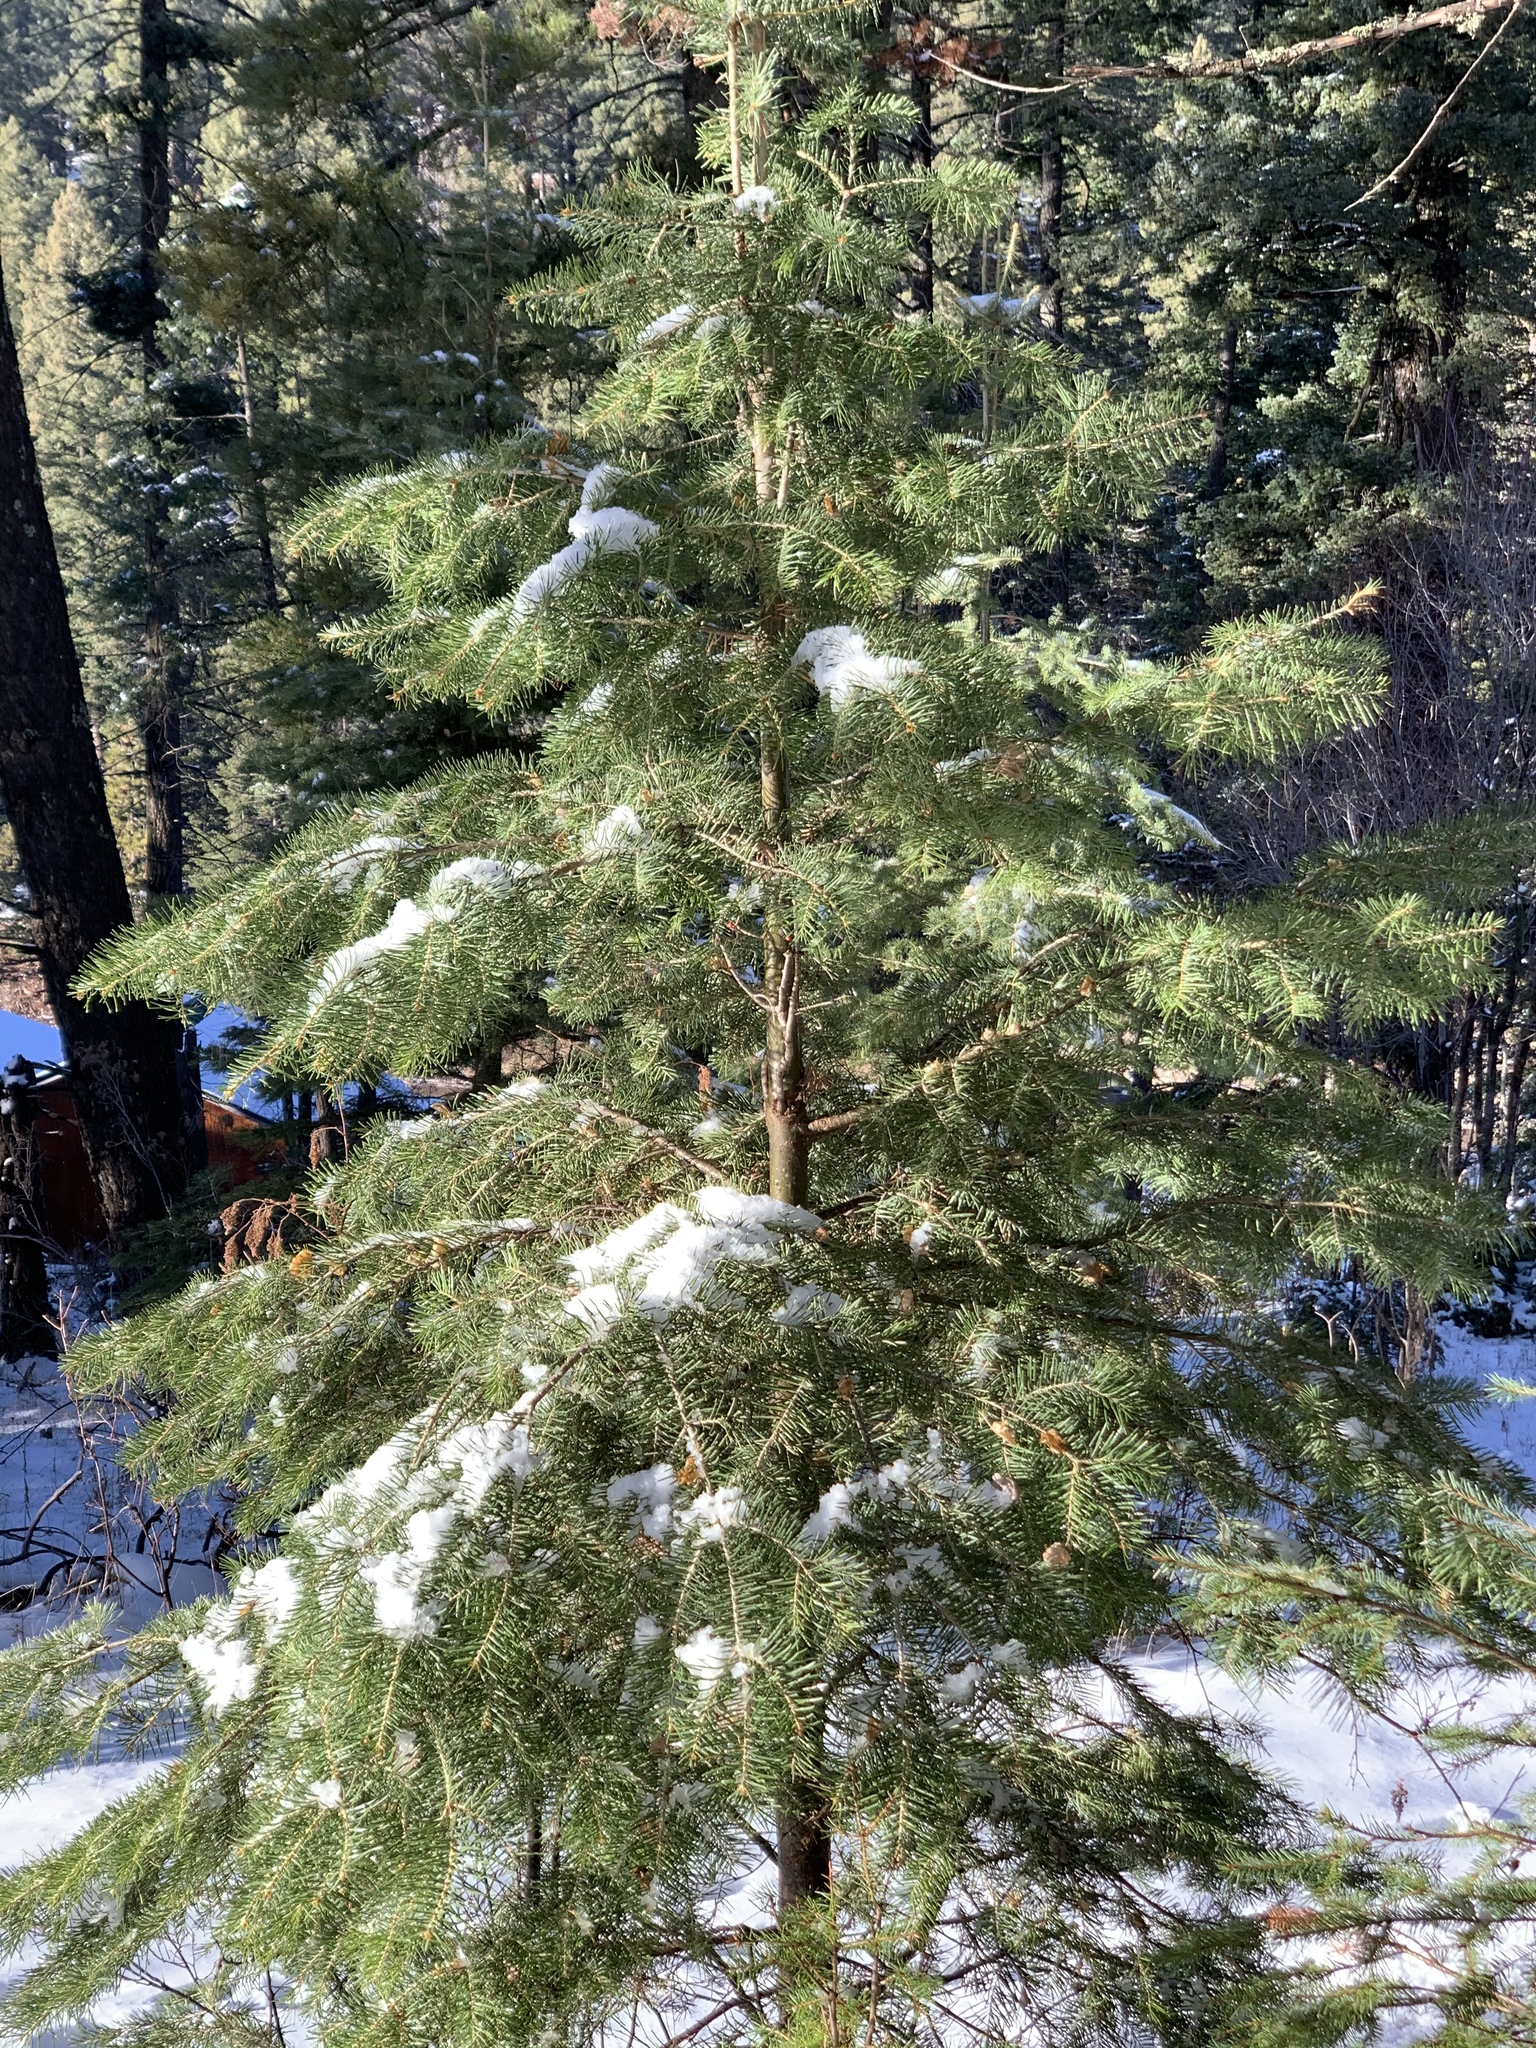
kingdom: Plantae
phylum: Tracheophyta
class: Pinopsida
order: Pinales
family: Pinaceae
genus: Abies
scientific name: Abies concolor
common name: Colorado fir
